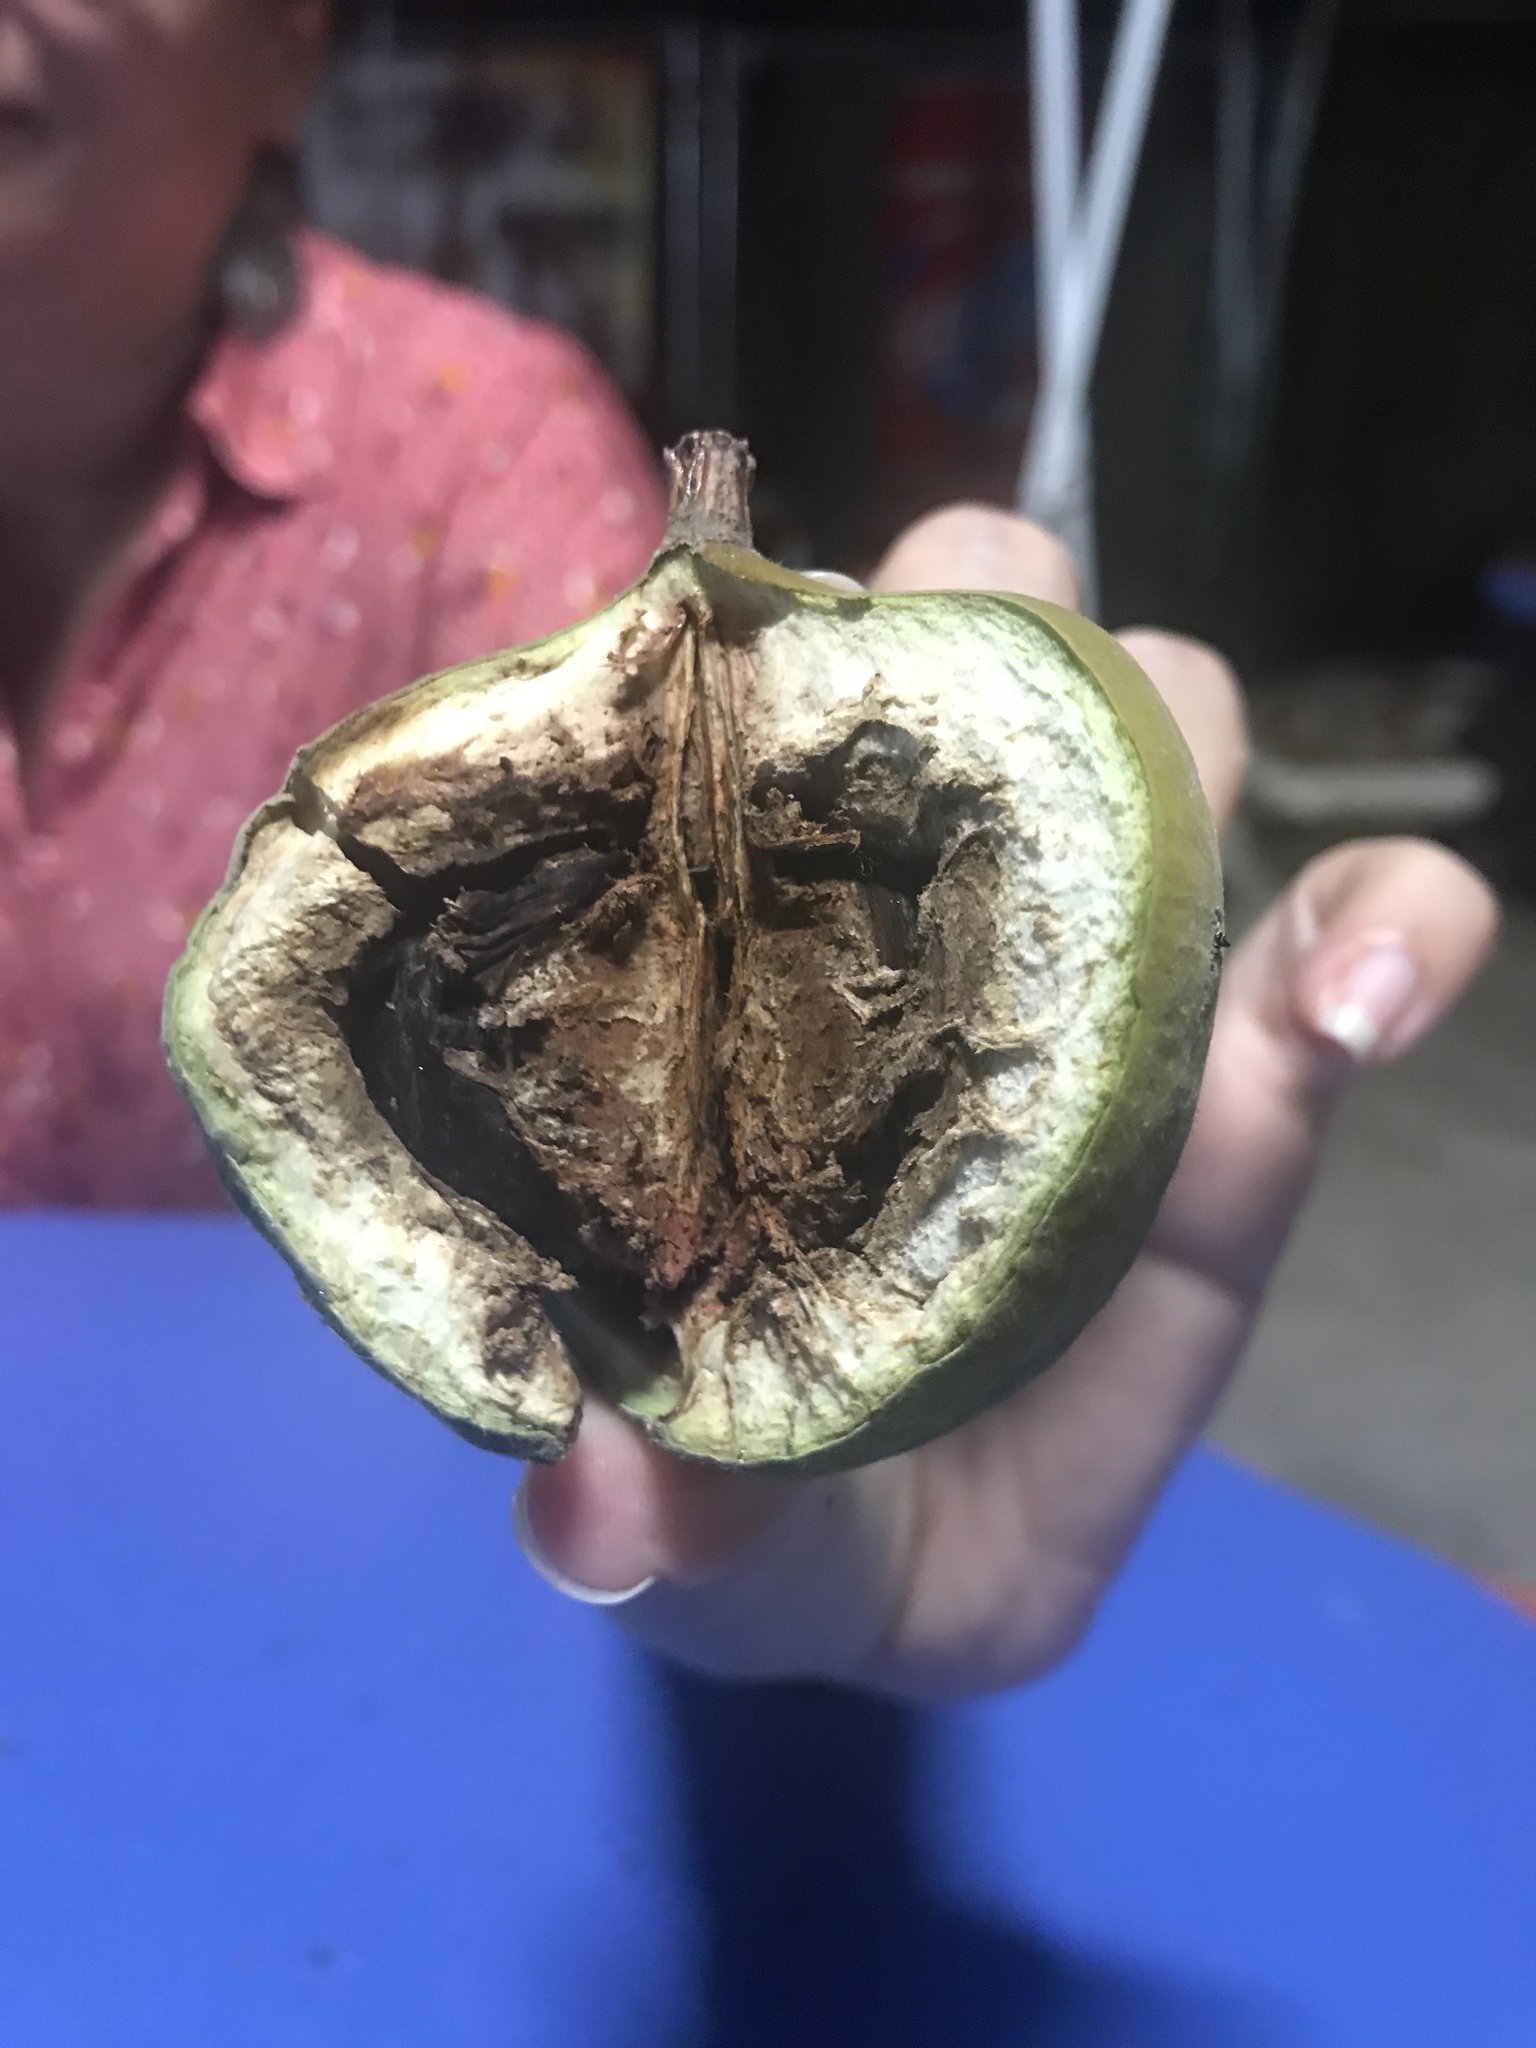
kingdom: Plantae
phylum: Tracheophyta
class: Magnoliopsida
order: Sapindales
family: Meliaceae
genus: Sandoricum
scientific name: Sandoricum koetjape
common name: Santol
